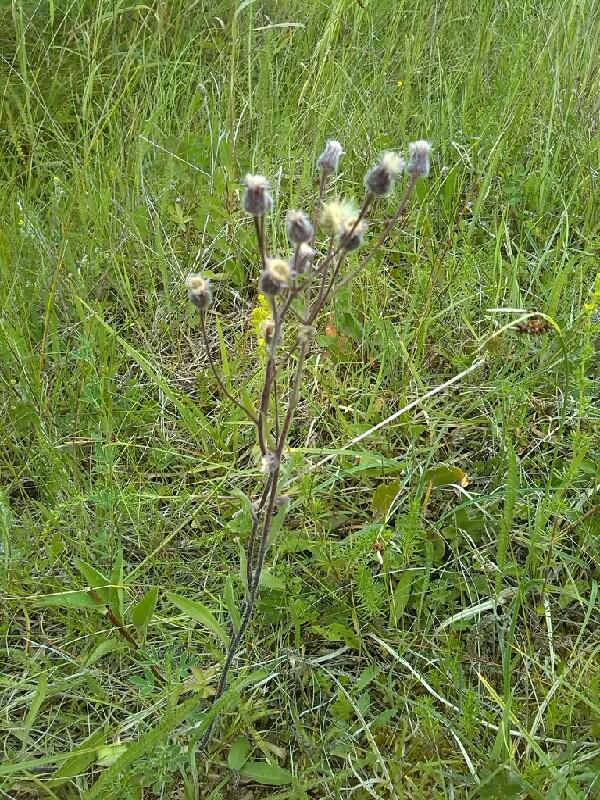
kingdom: Plantae
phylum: Tracheophyta
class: Magnoliopsida
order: Asterales
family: Asteraceae
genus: Erigeron
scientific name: Erigeron acris
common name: Blue fleabane
